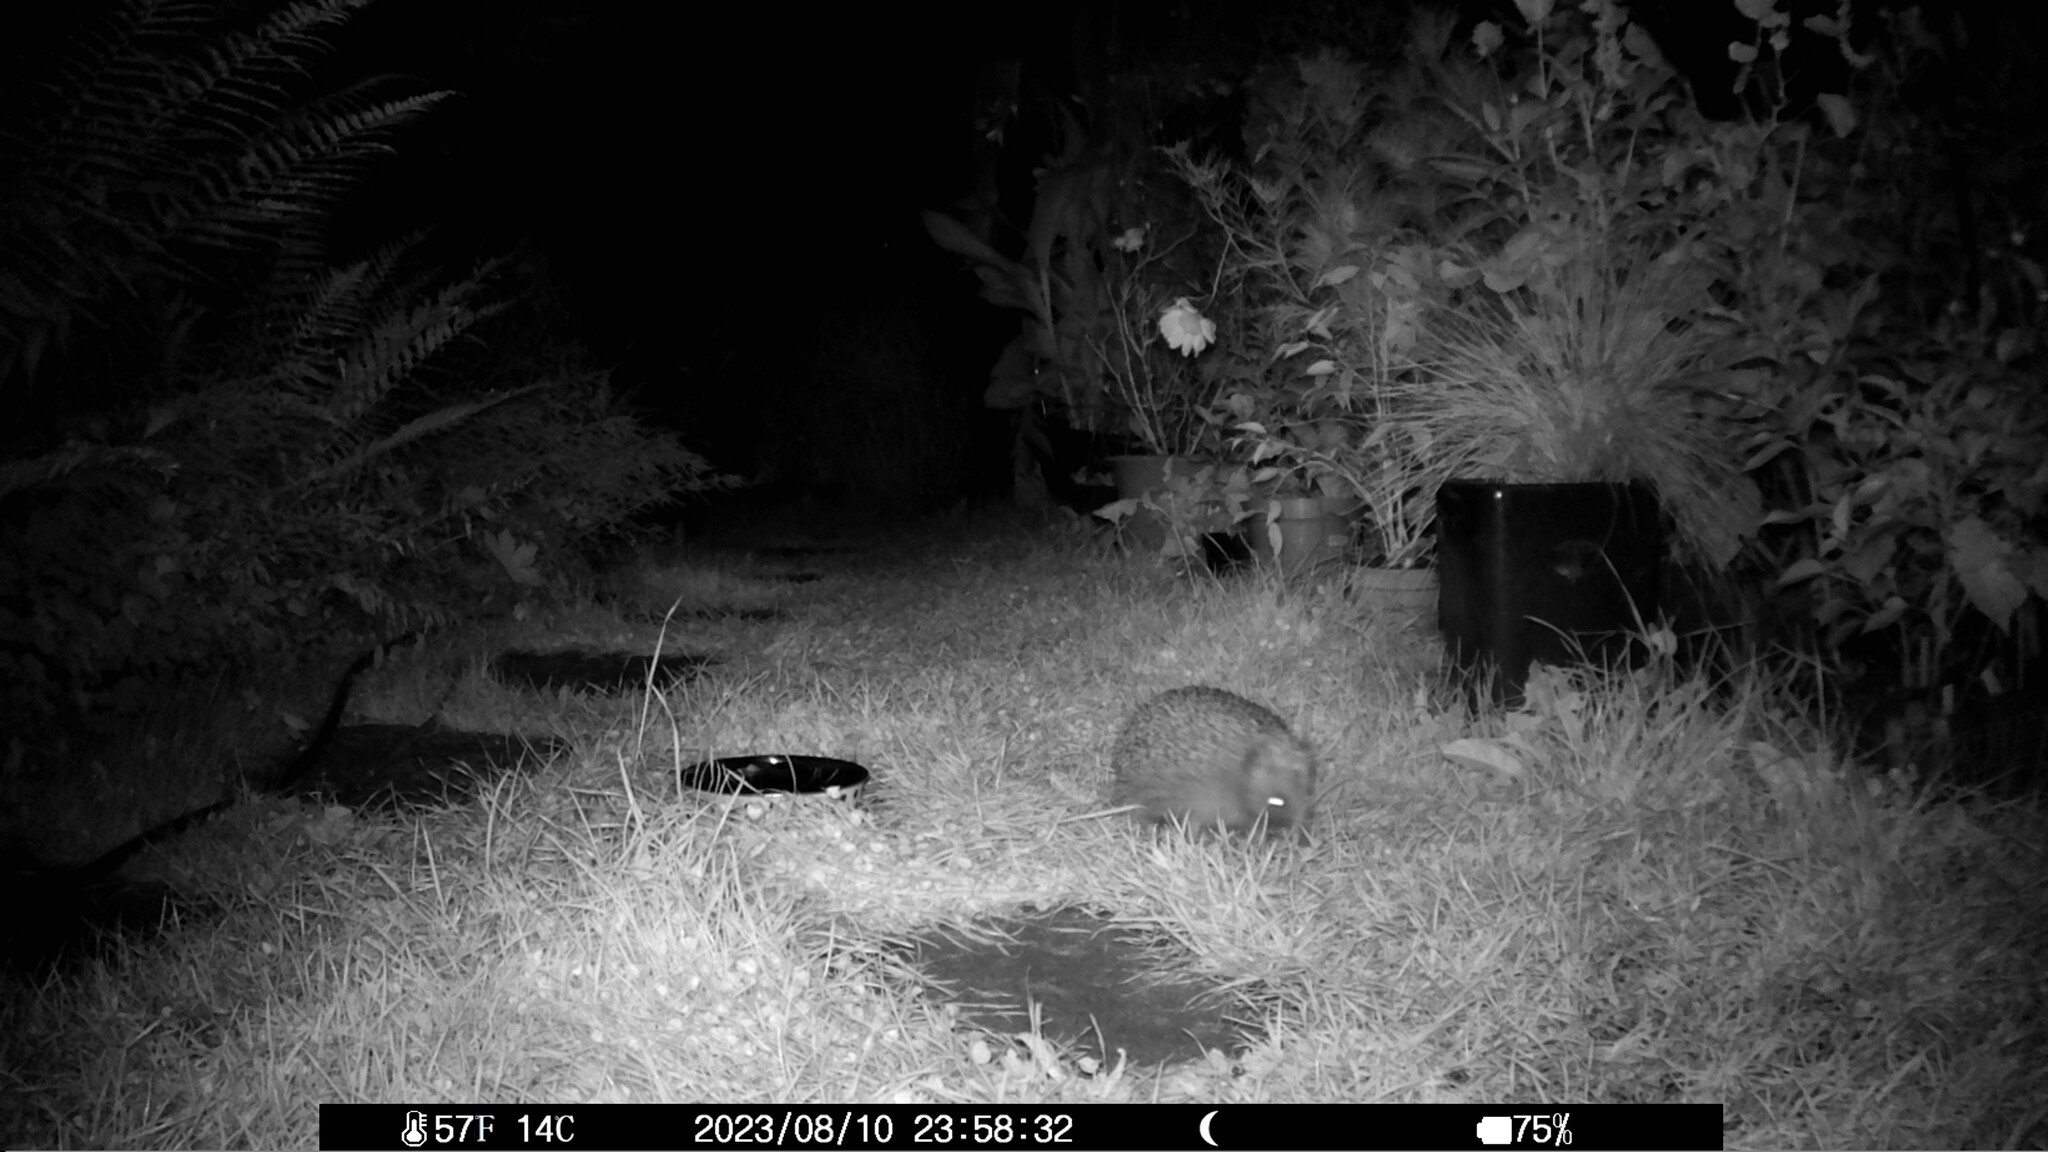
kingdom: Animalia
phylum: Chordata
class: Mammalia
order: Erinaceomorpha
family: Erinaceidae
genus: Erinaceus
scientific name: Erinaceus europaeus
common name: West european hedgehog
